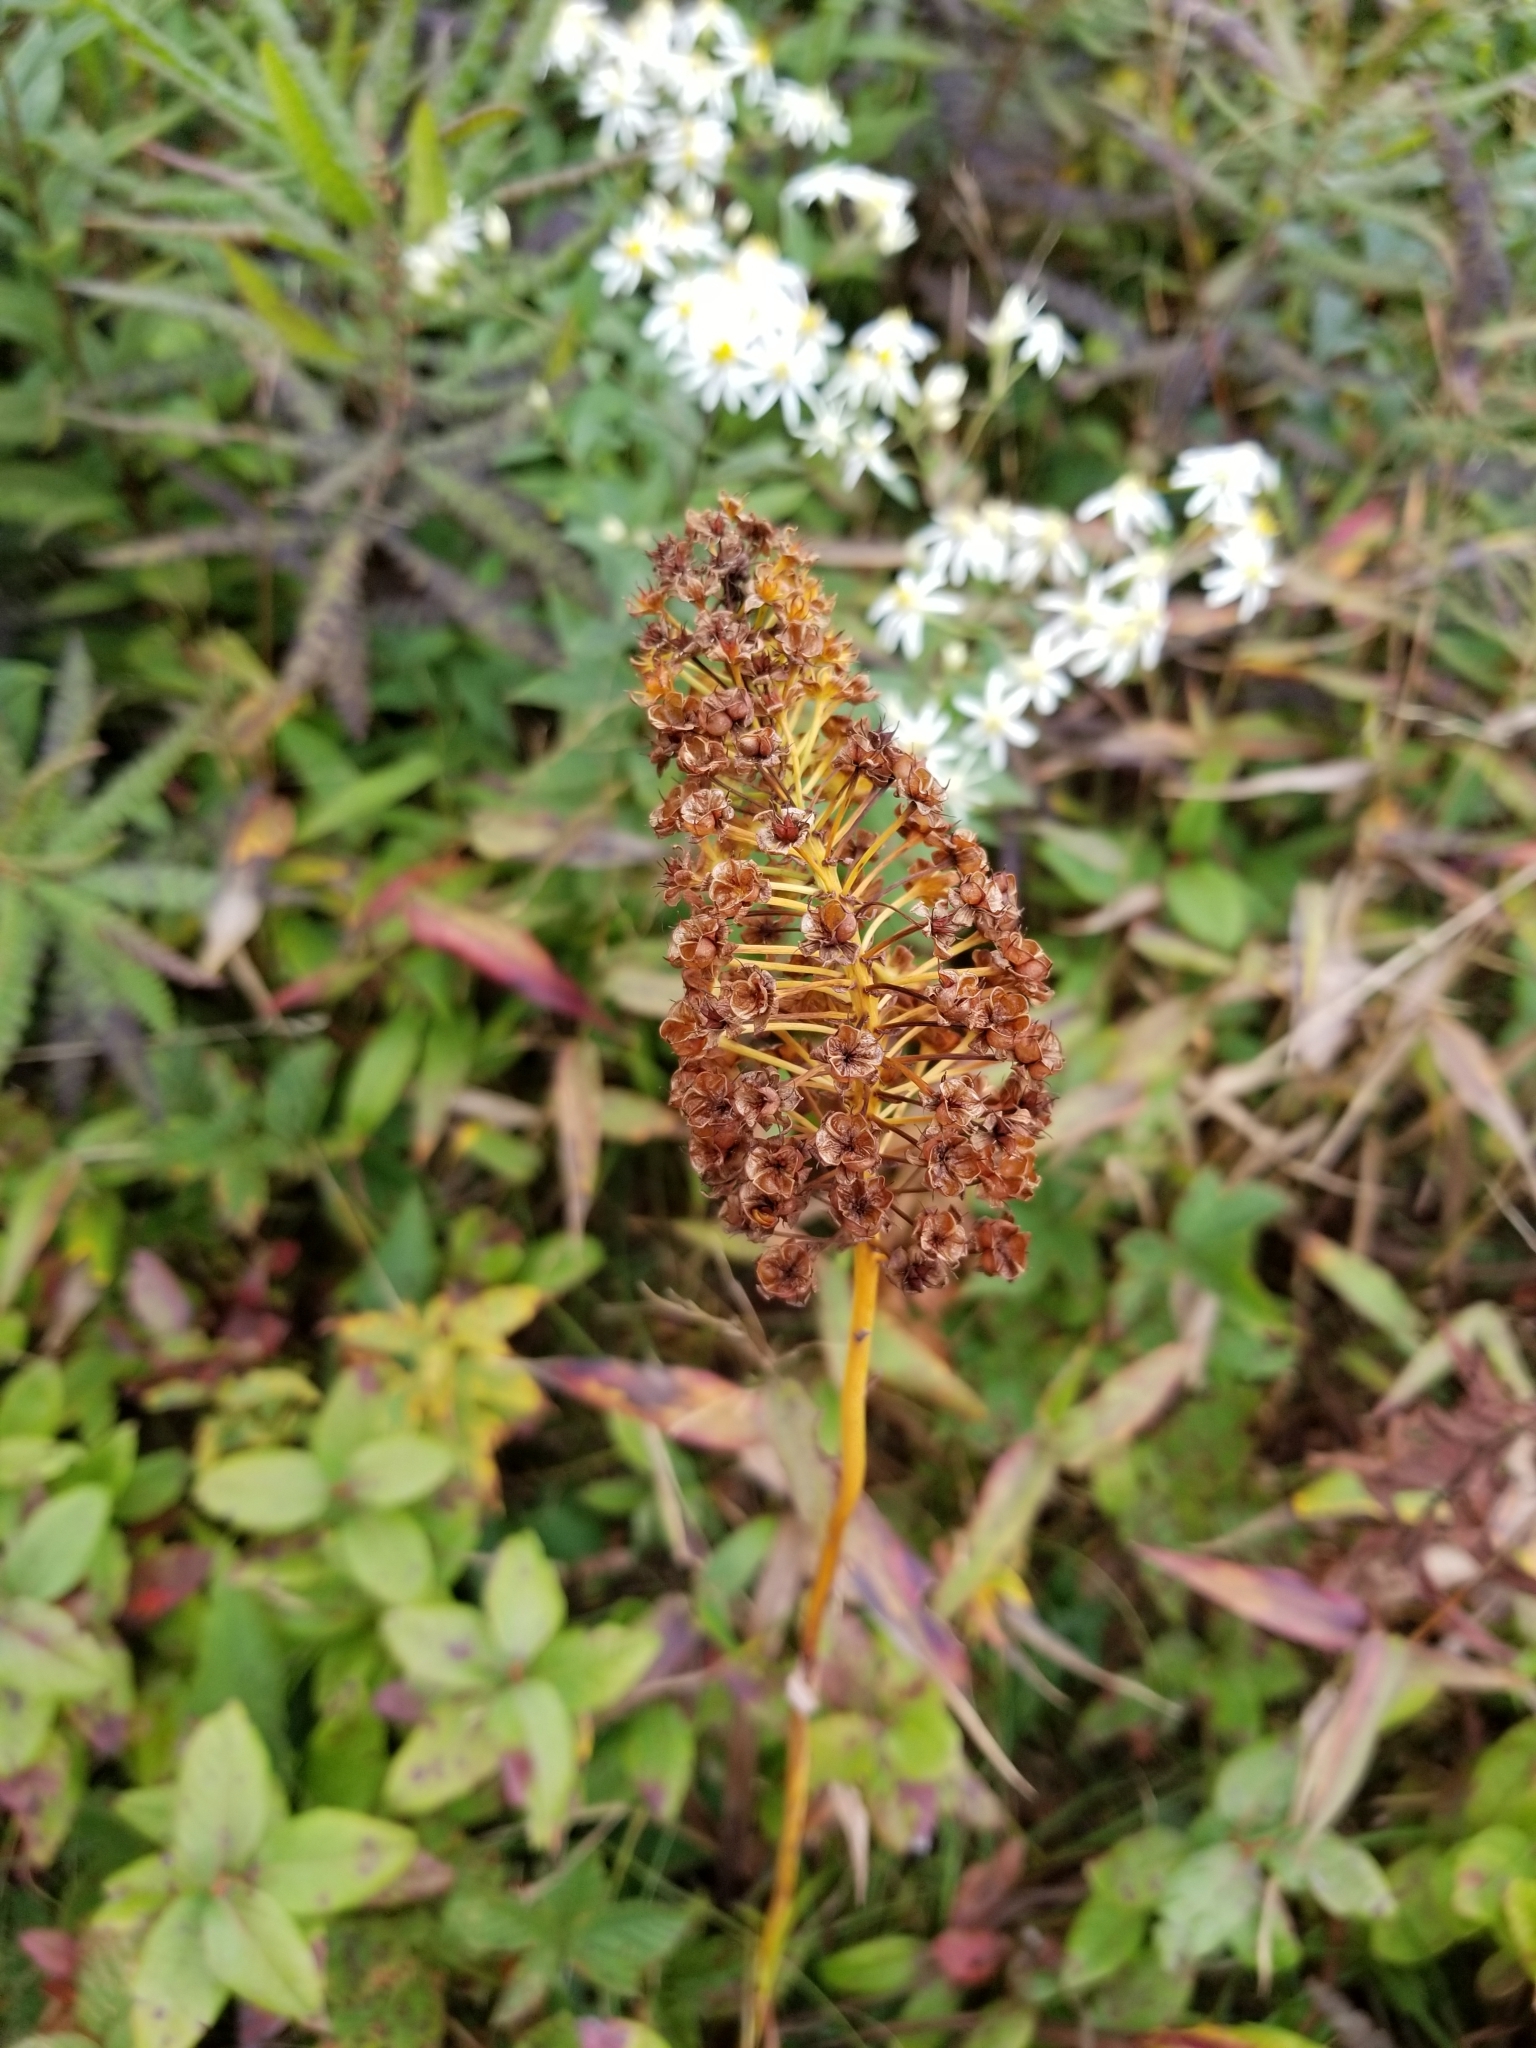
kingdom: Plantae
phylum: Tracheophyta
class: Liliopsida
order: Liliales
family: Melanthiaceae
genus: Amianthium
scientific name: Amianthium muscitoxicum
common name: Fly-poison
